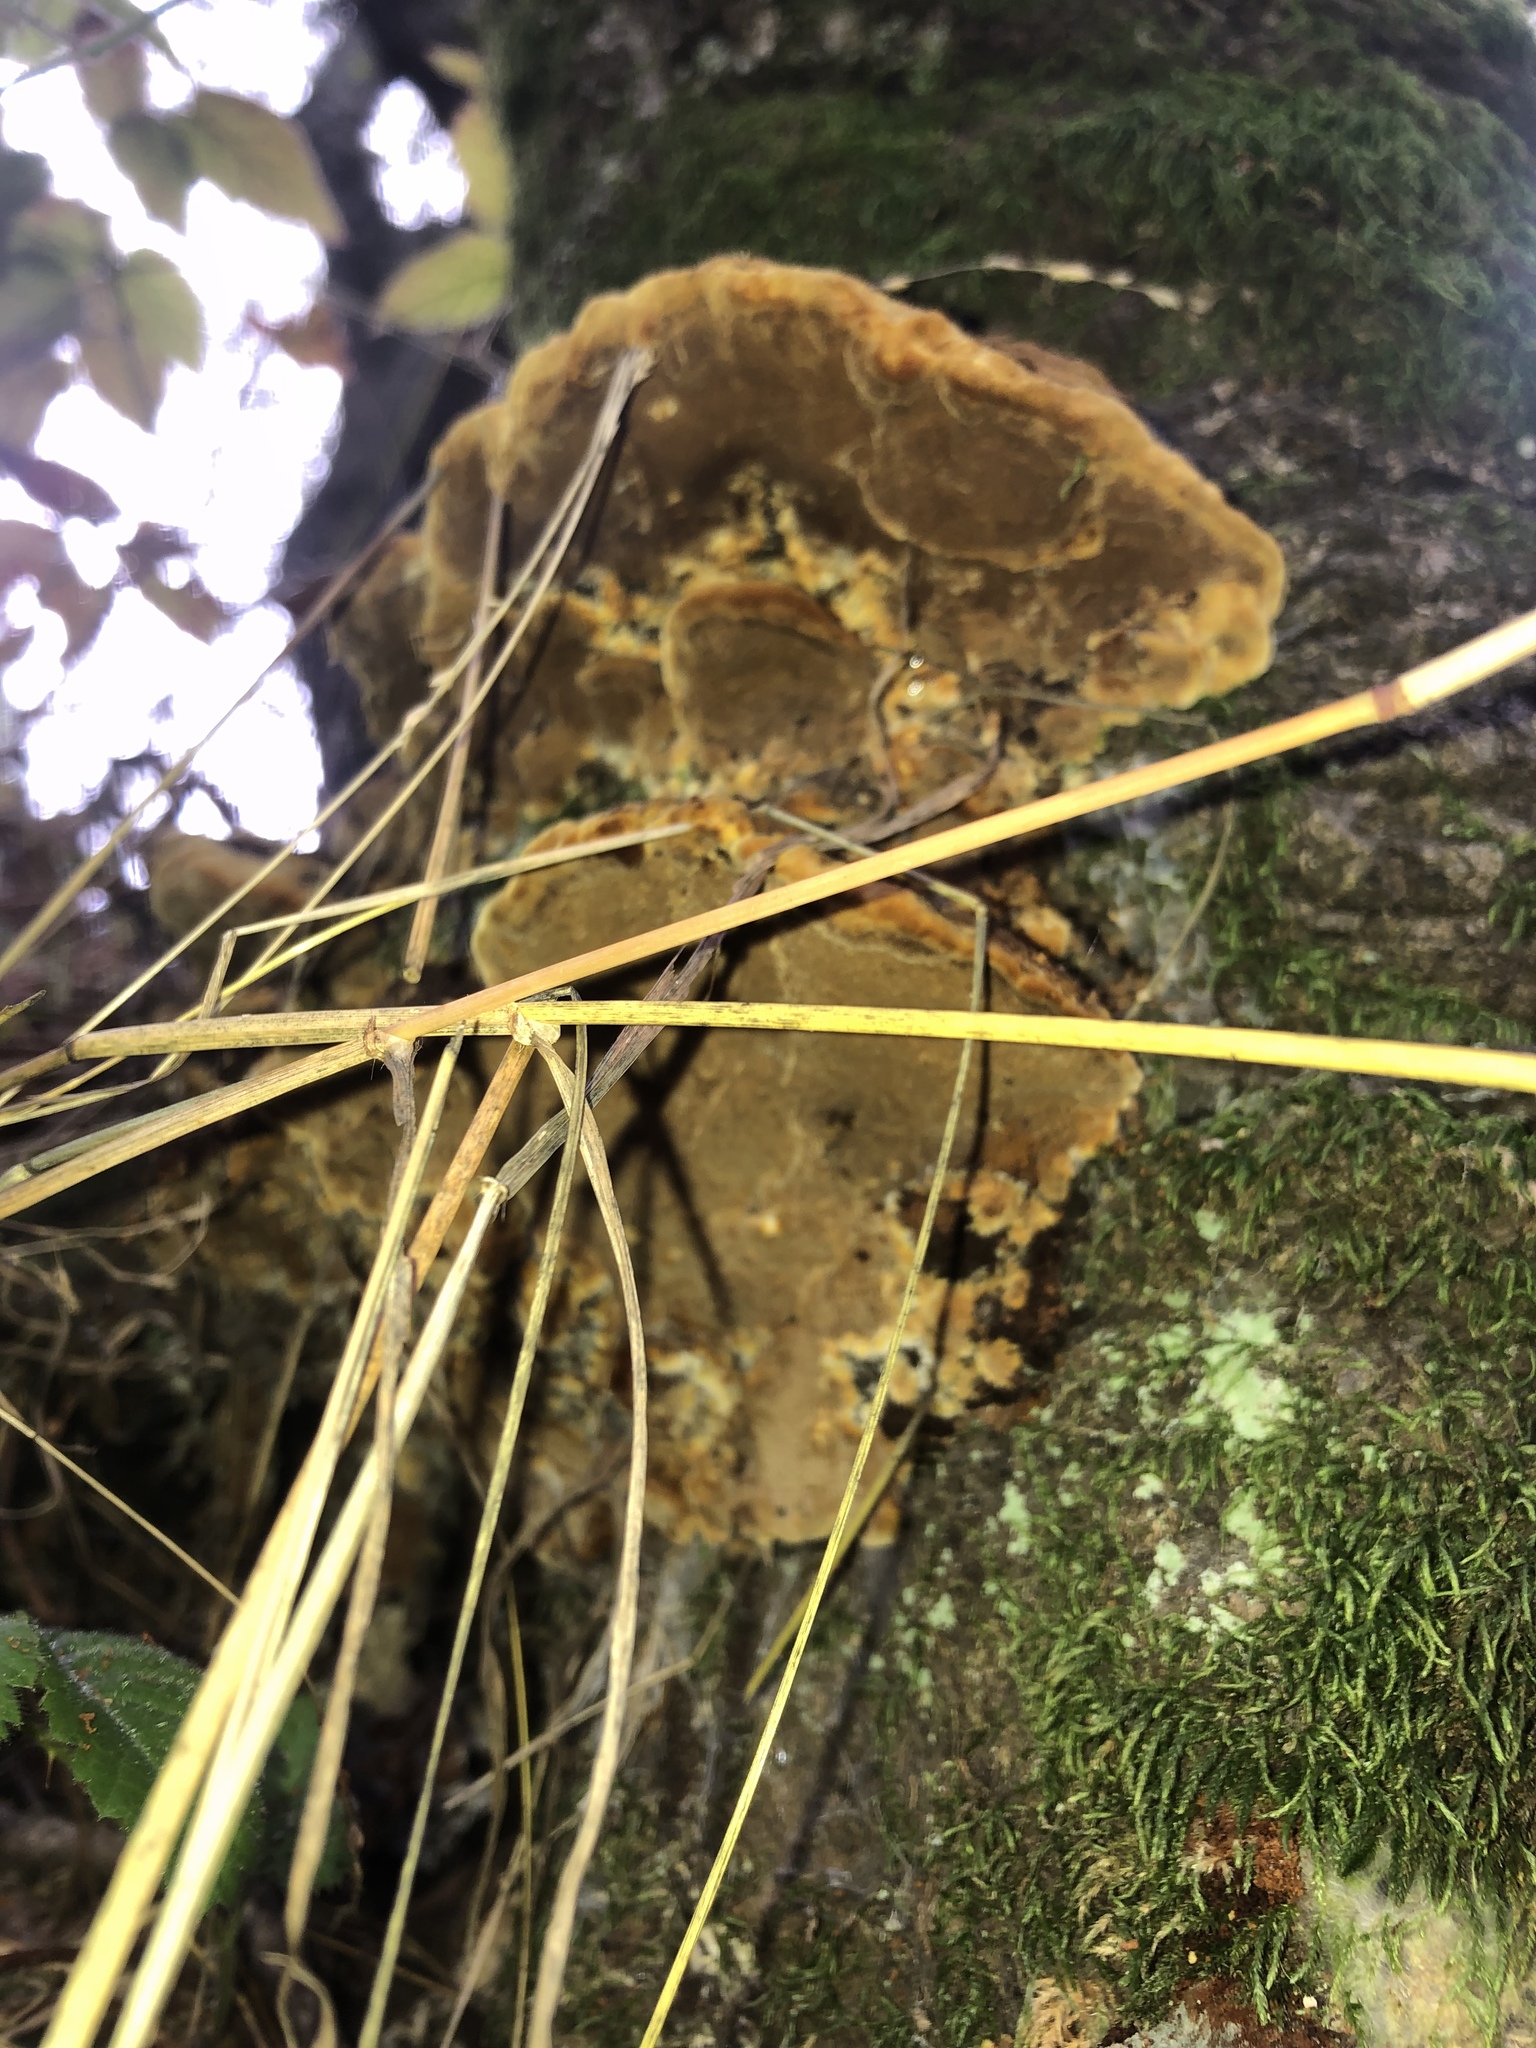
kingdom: Fungi
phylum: Basidiomycota
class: Agaricomycetes
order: Hymenochaetales
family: Hymenochaetaceae
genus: Phellinus
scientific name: Phellinus gilvus
